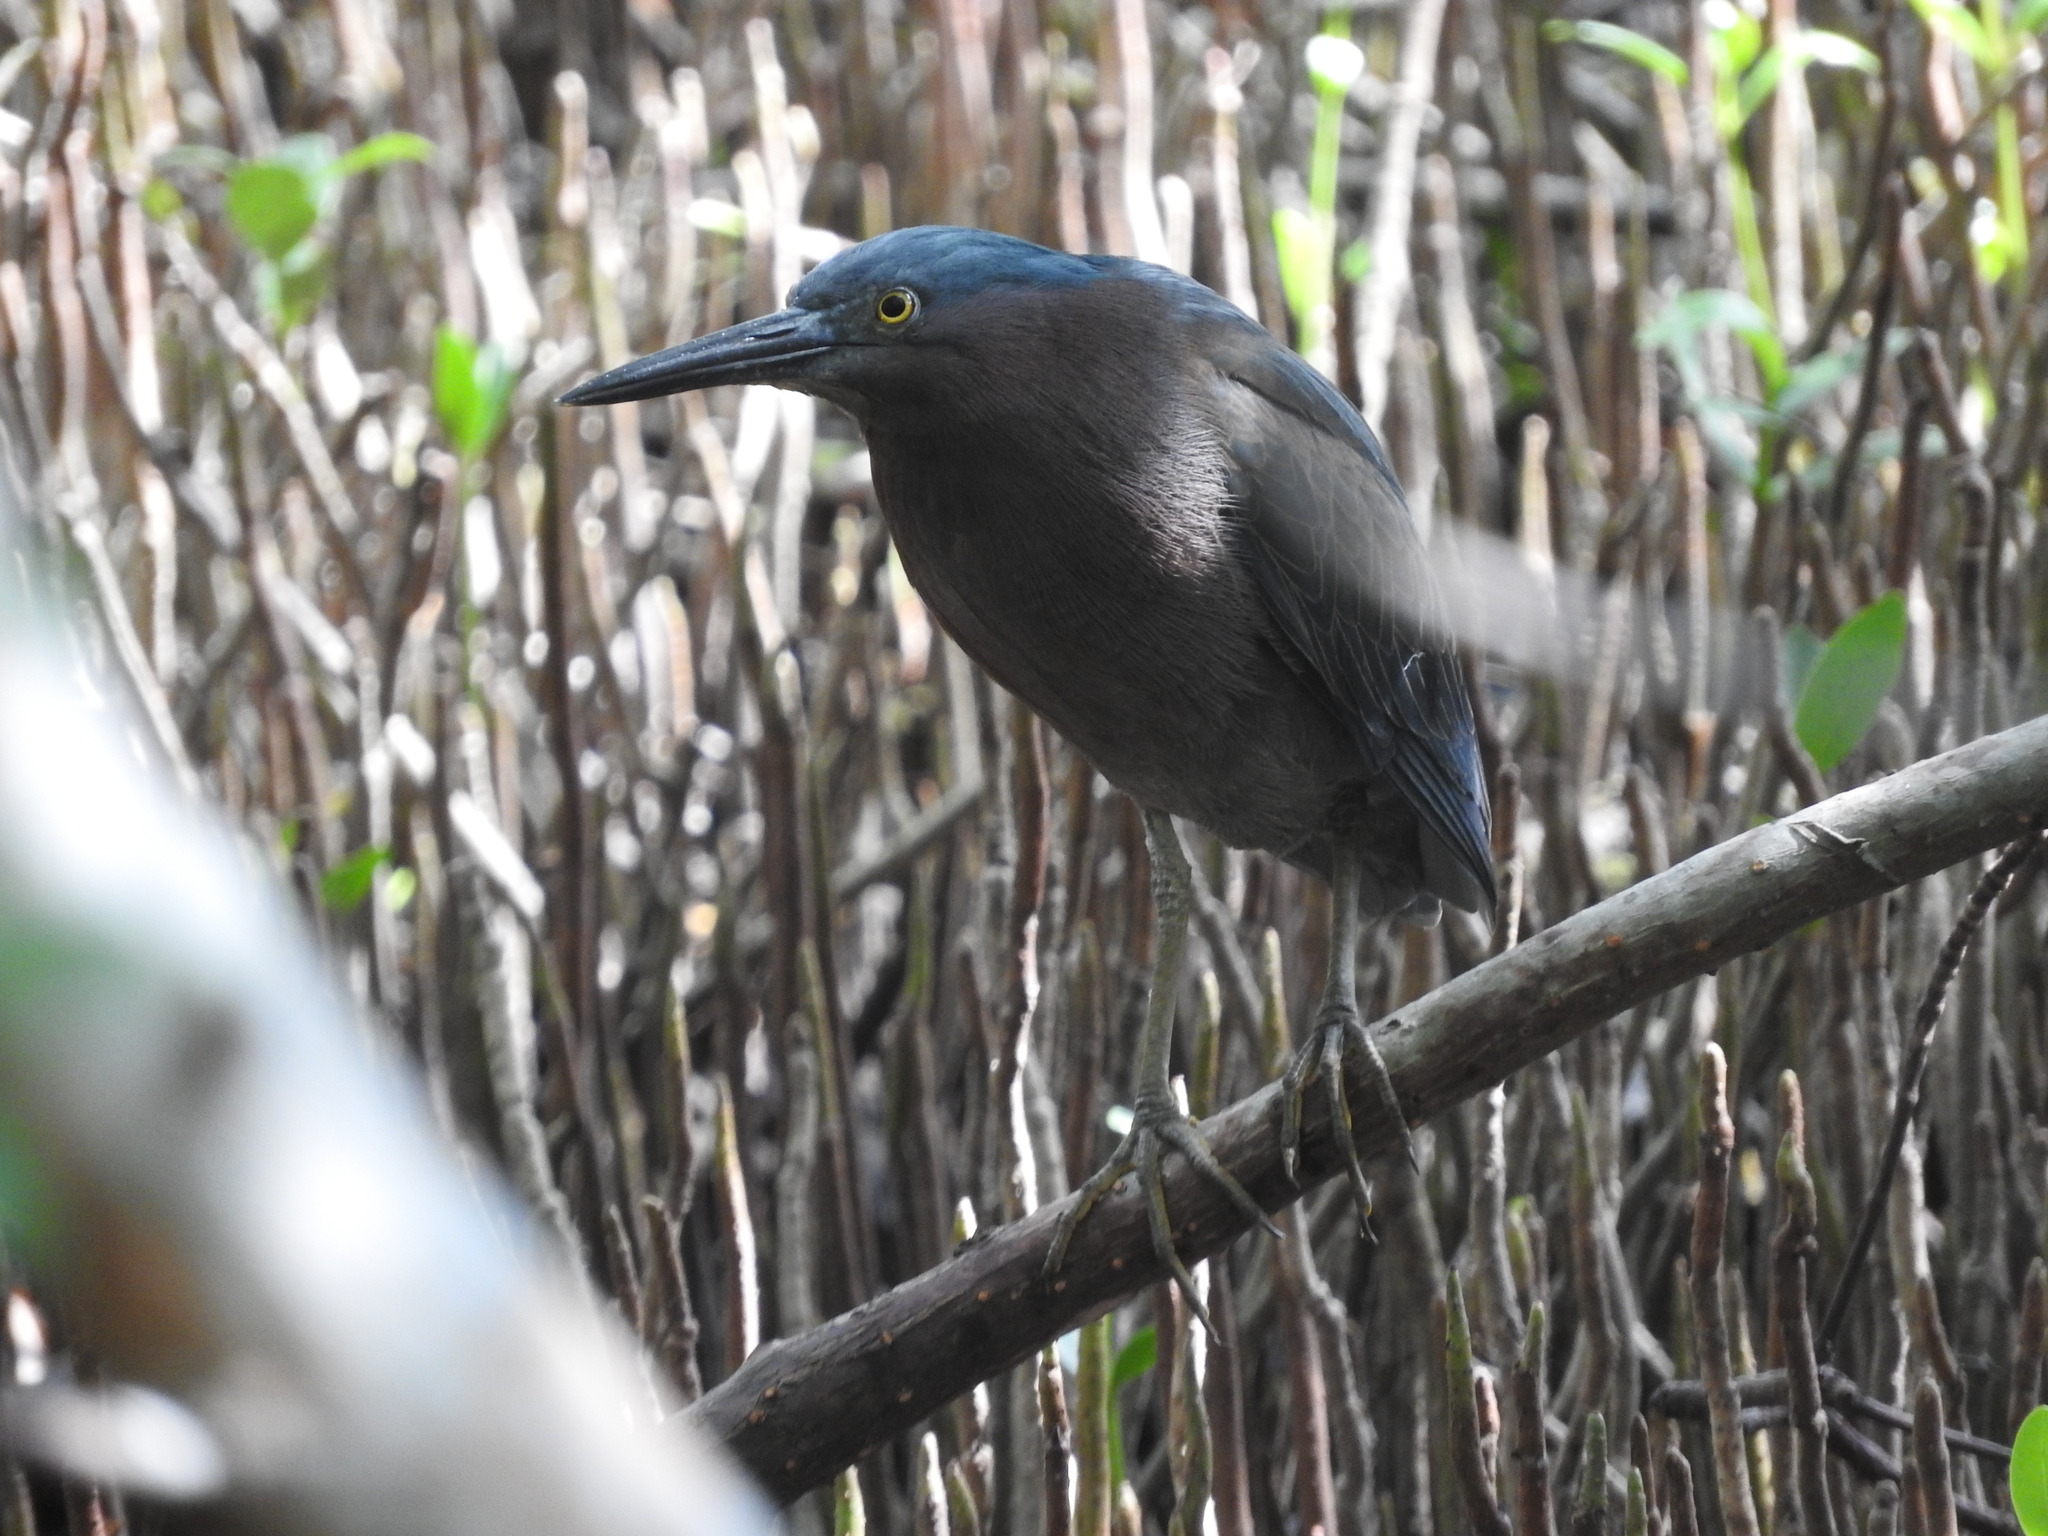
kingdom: Animalia
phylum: Chordata
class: Aves
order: Pelecaniformes
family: Ardeidae
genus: Butorides
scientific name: Butorides virescens
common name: Green heron
